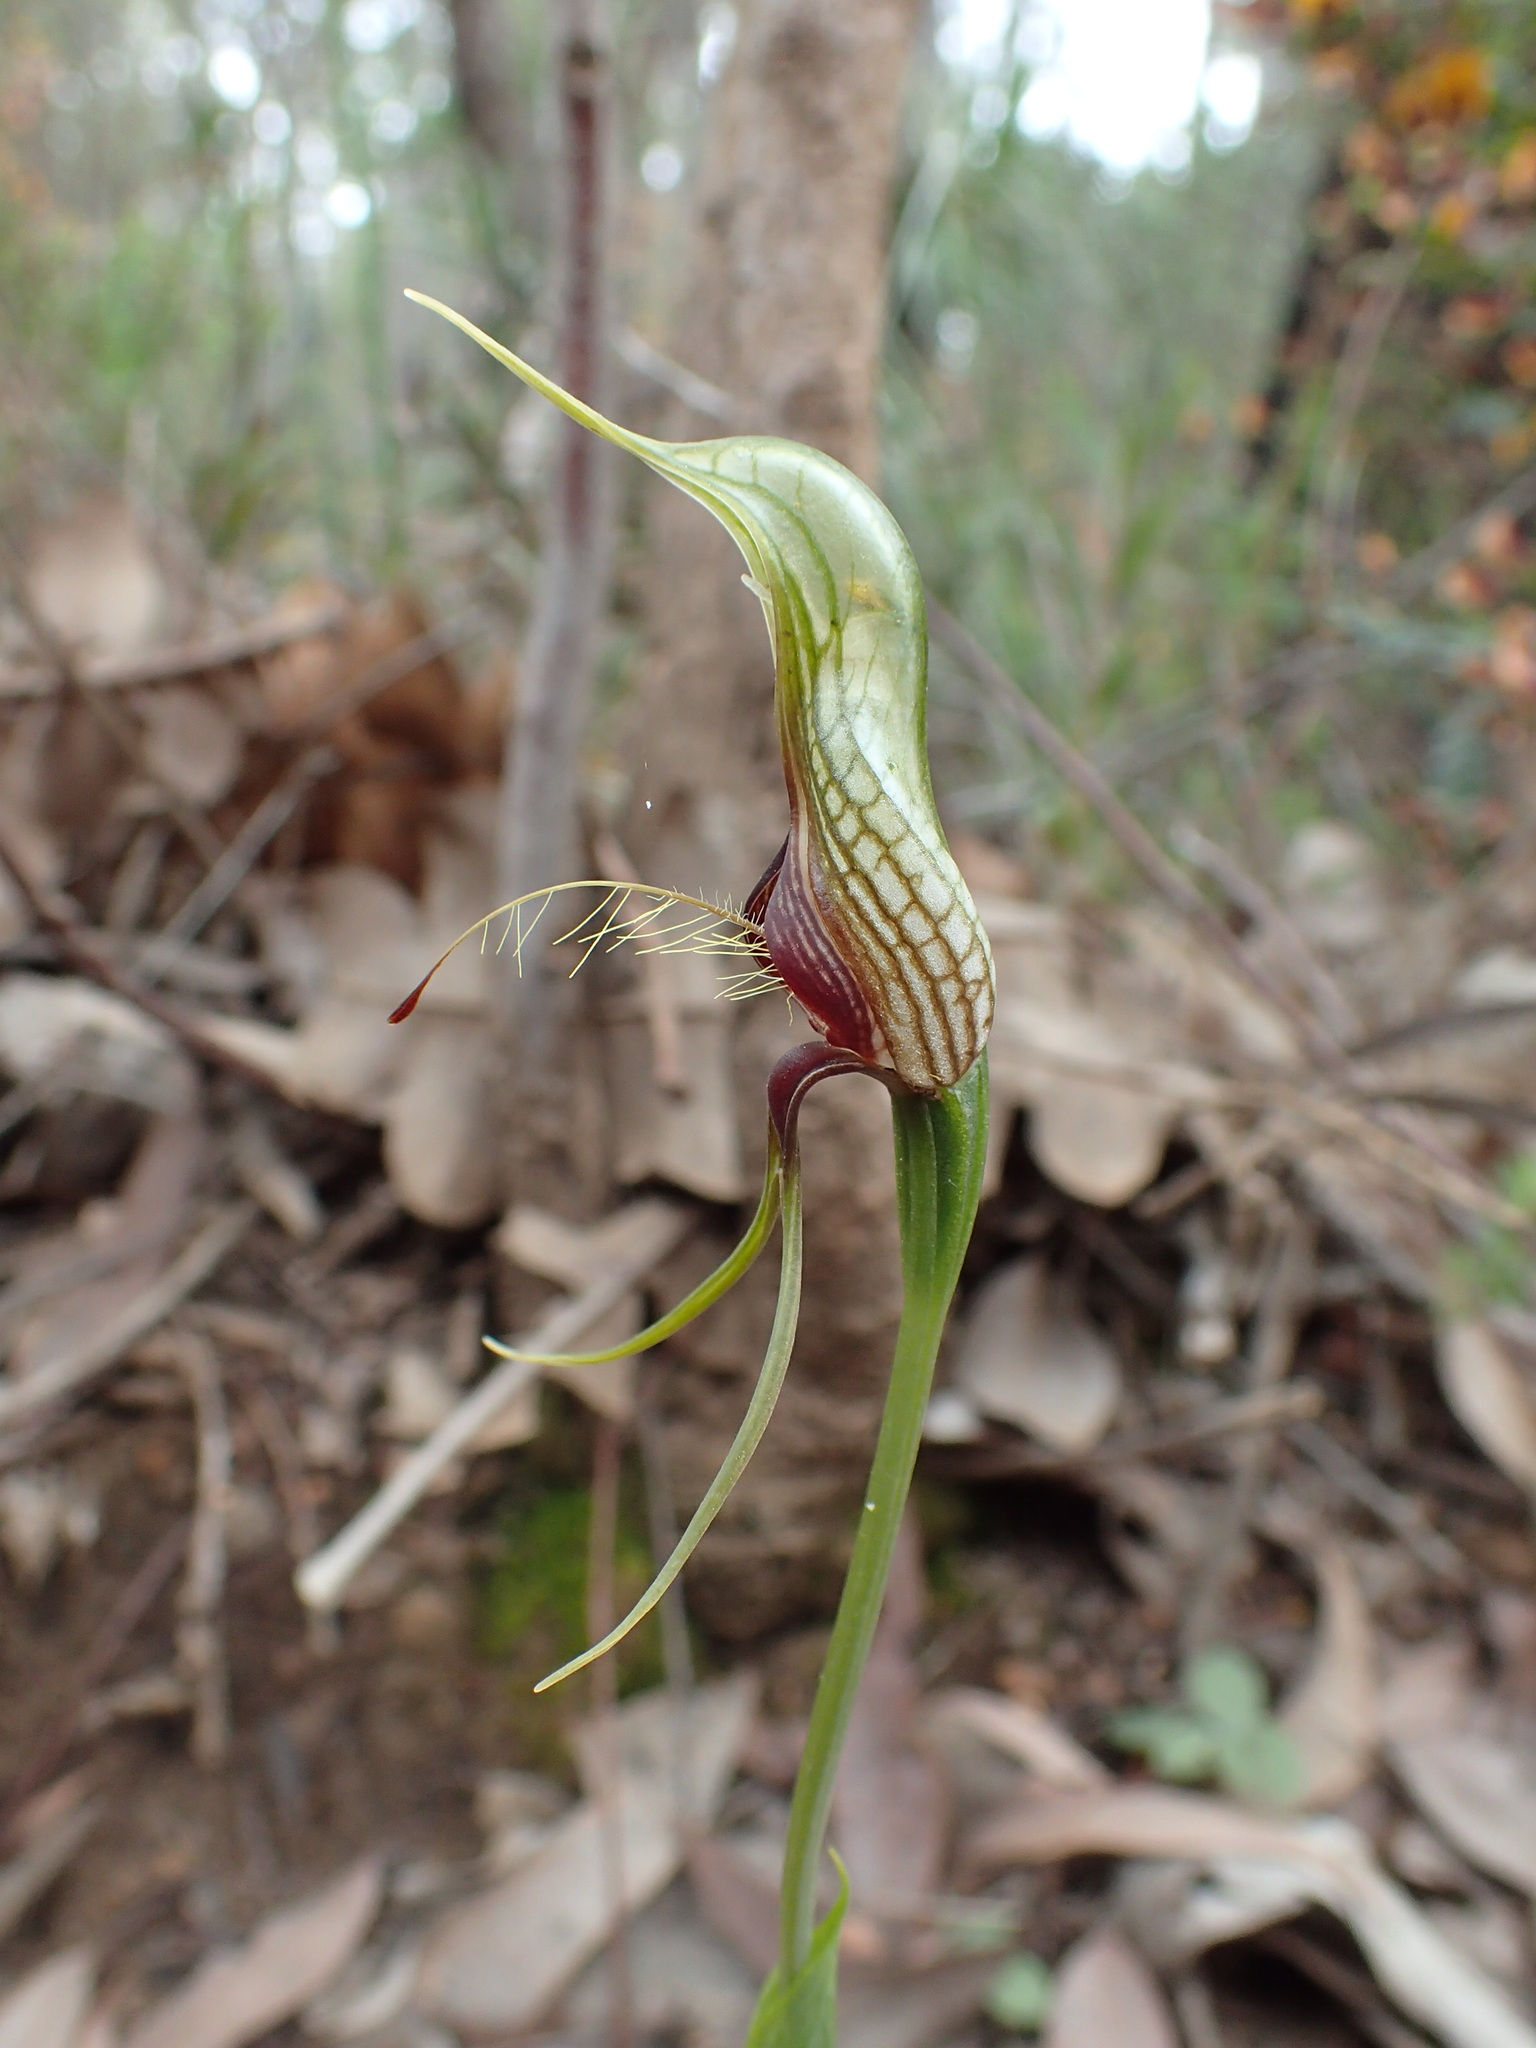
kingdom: Plantae
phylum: Tracheophyta
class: Liliopsida
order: Asparagales
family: Orchidaceae
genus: Pterostylis
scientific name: Pterostylis barbata
